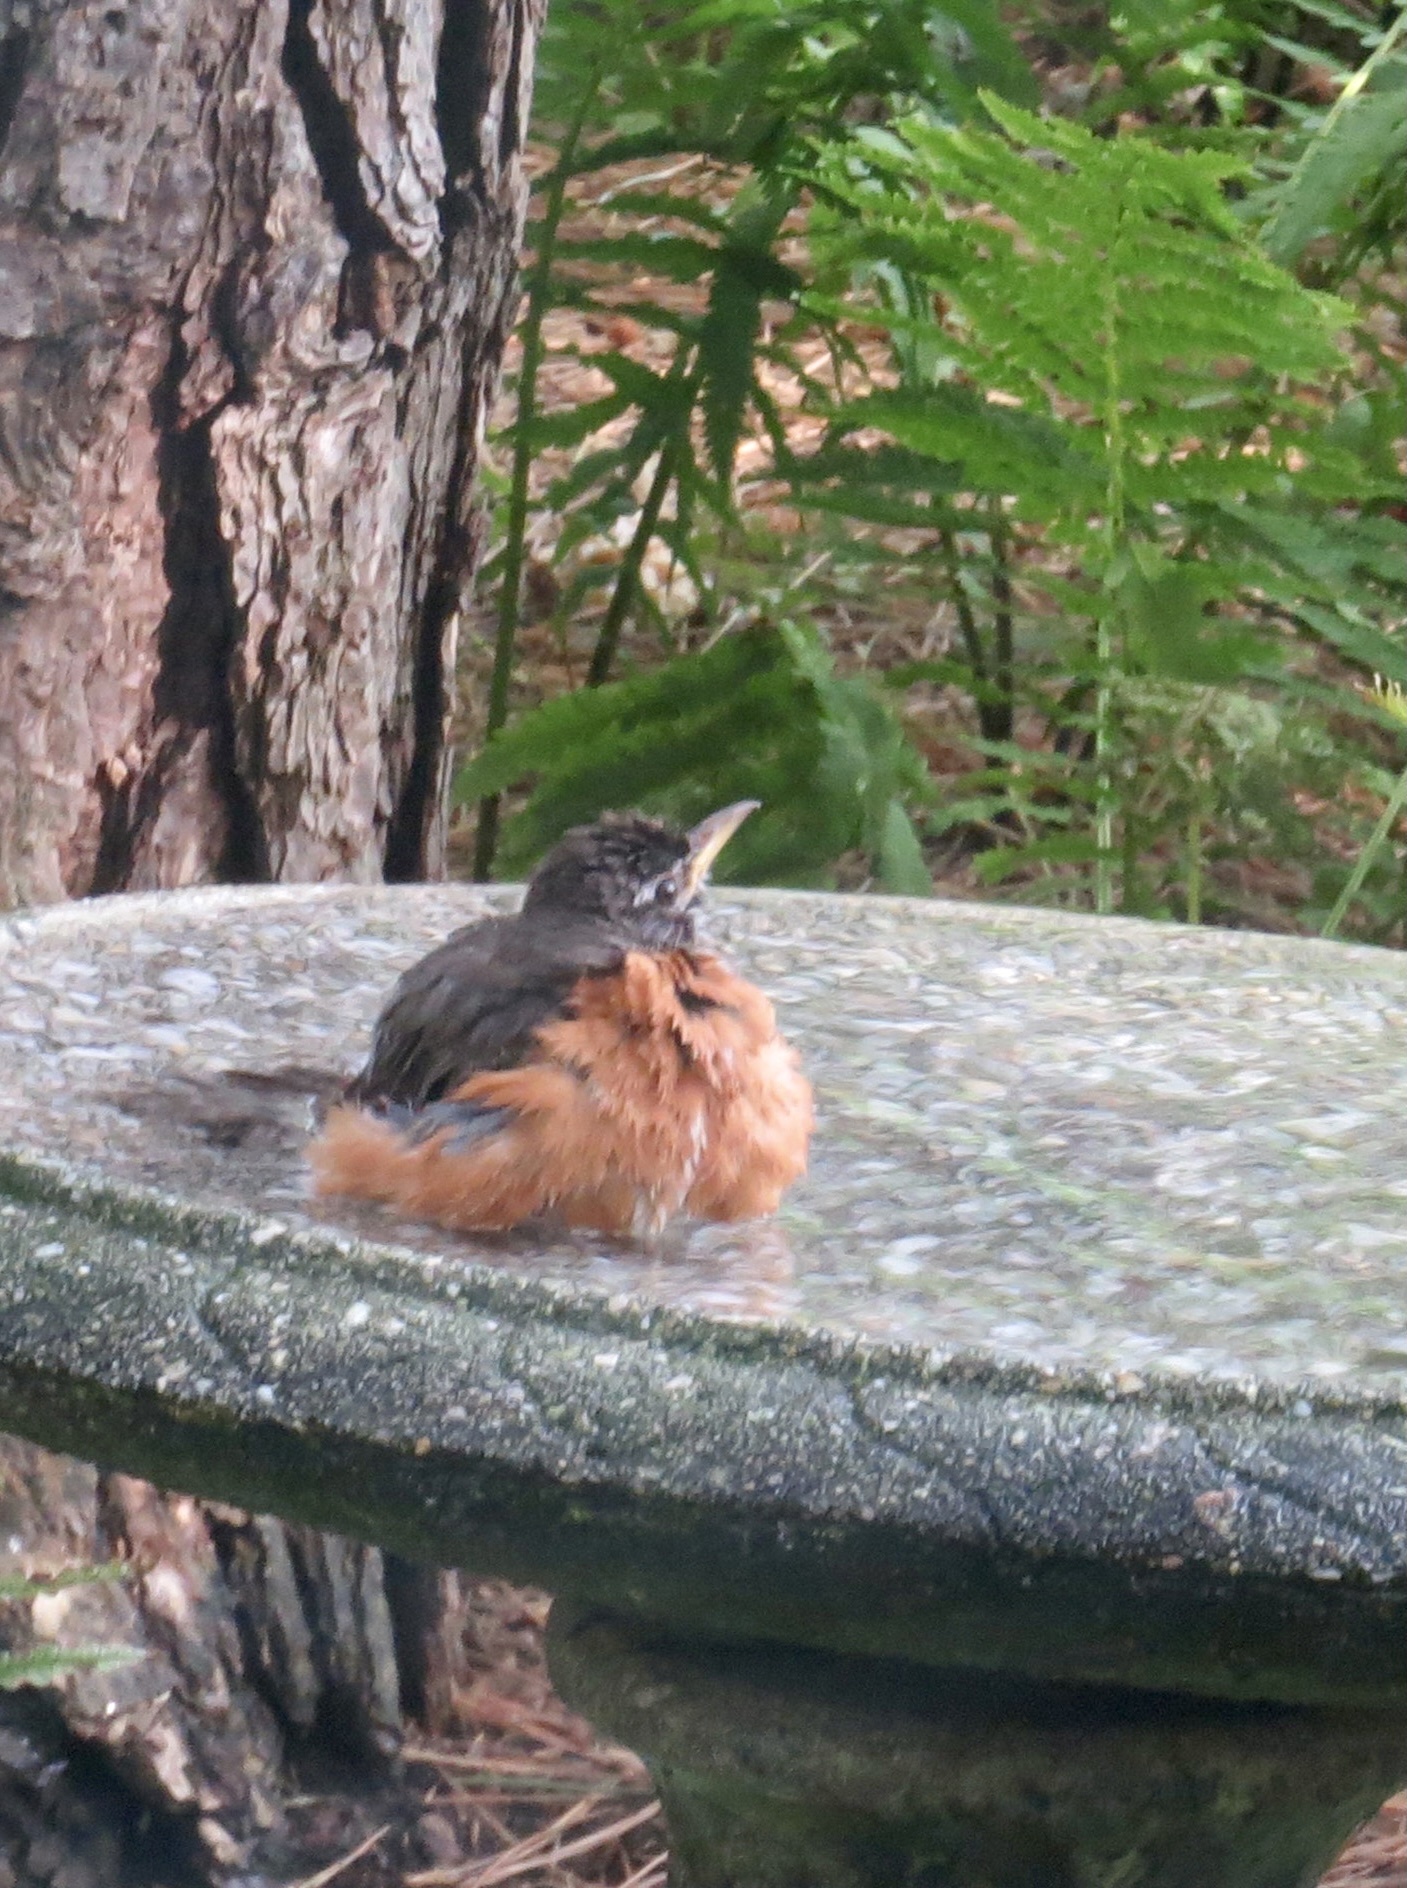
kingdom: Animalia
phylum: Chordata
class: Aves
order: Passeriformes
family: Turdidae
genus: Turdus
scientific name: Turdus migratorius
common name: American robin
